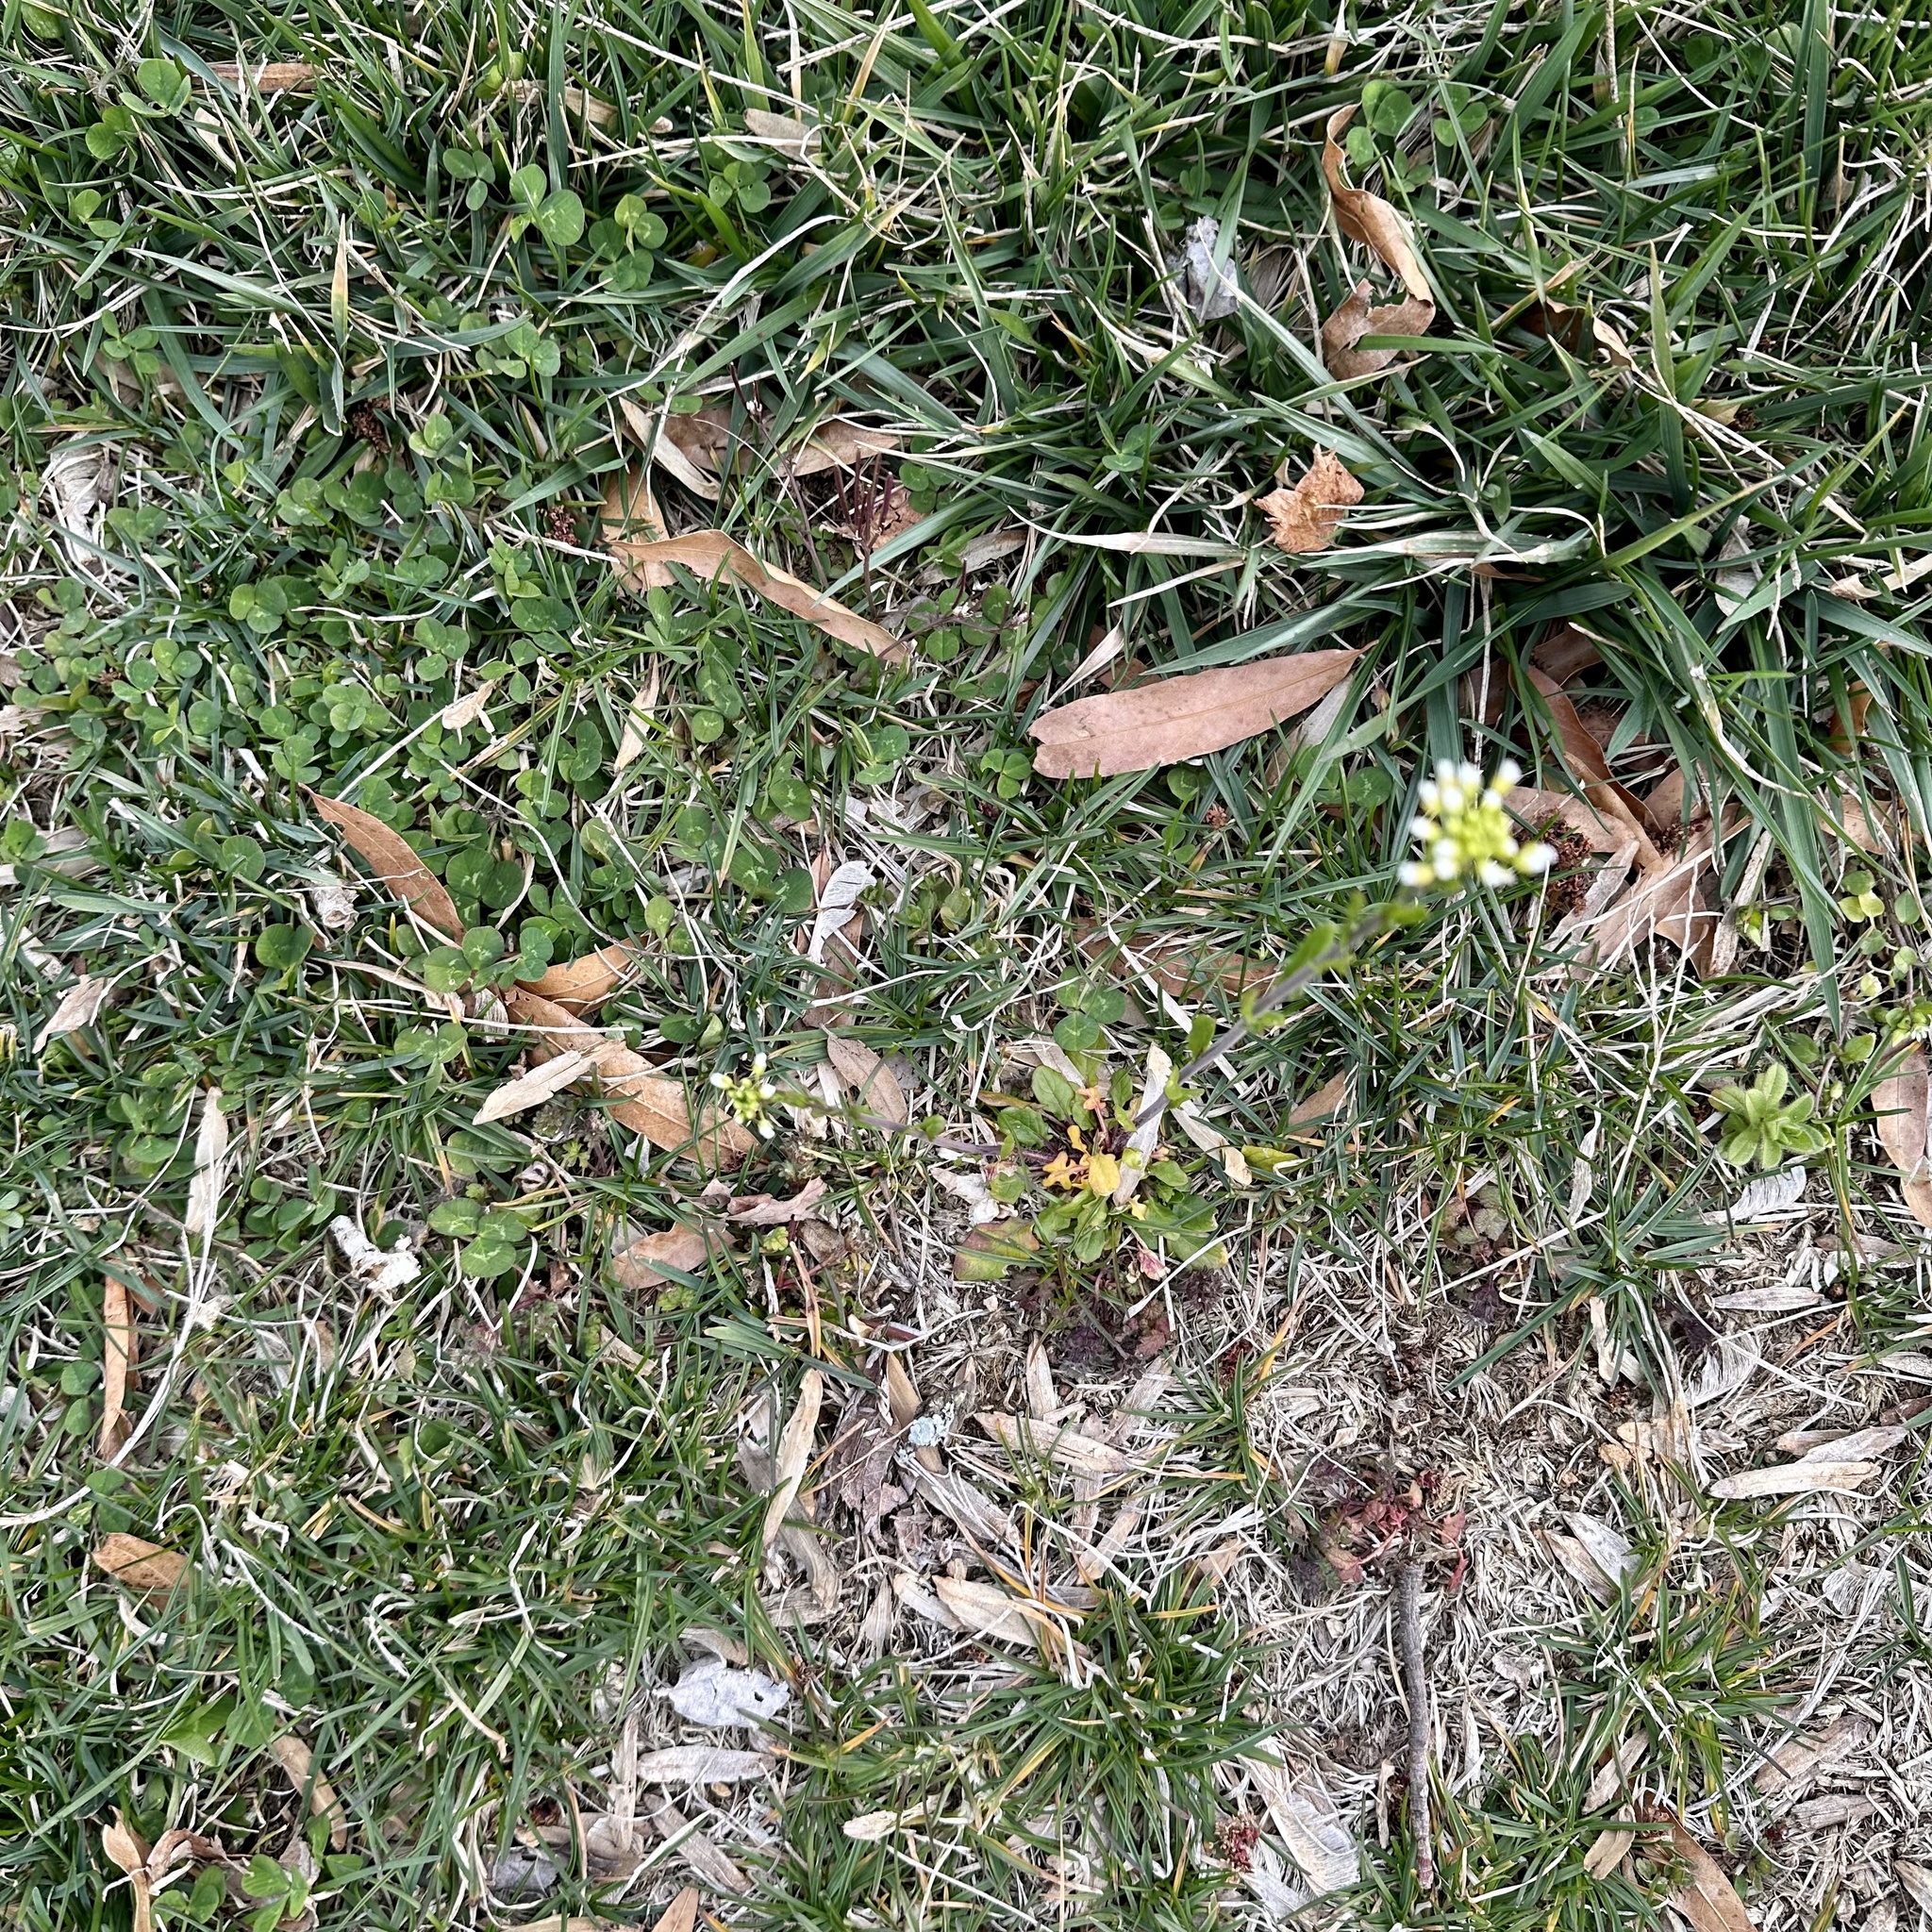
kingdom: Plantae
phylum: Tracheophyta
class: Magnoliopsida
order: Brassicales
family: Brassicaceae
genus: Mummenhoffia
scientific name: Mummenhoffia alliacea
